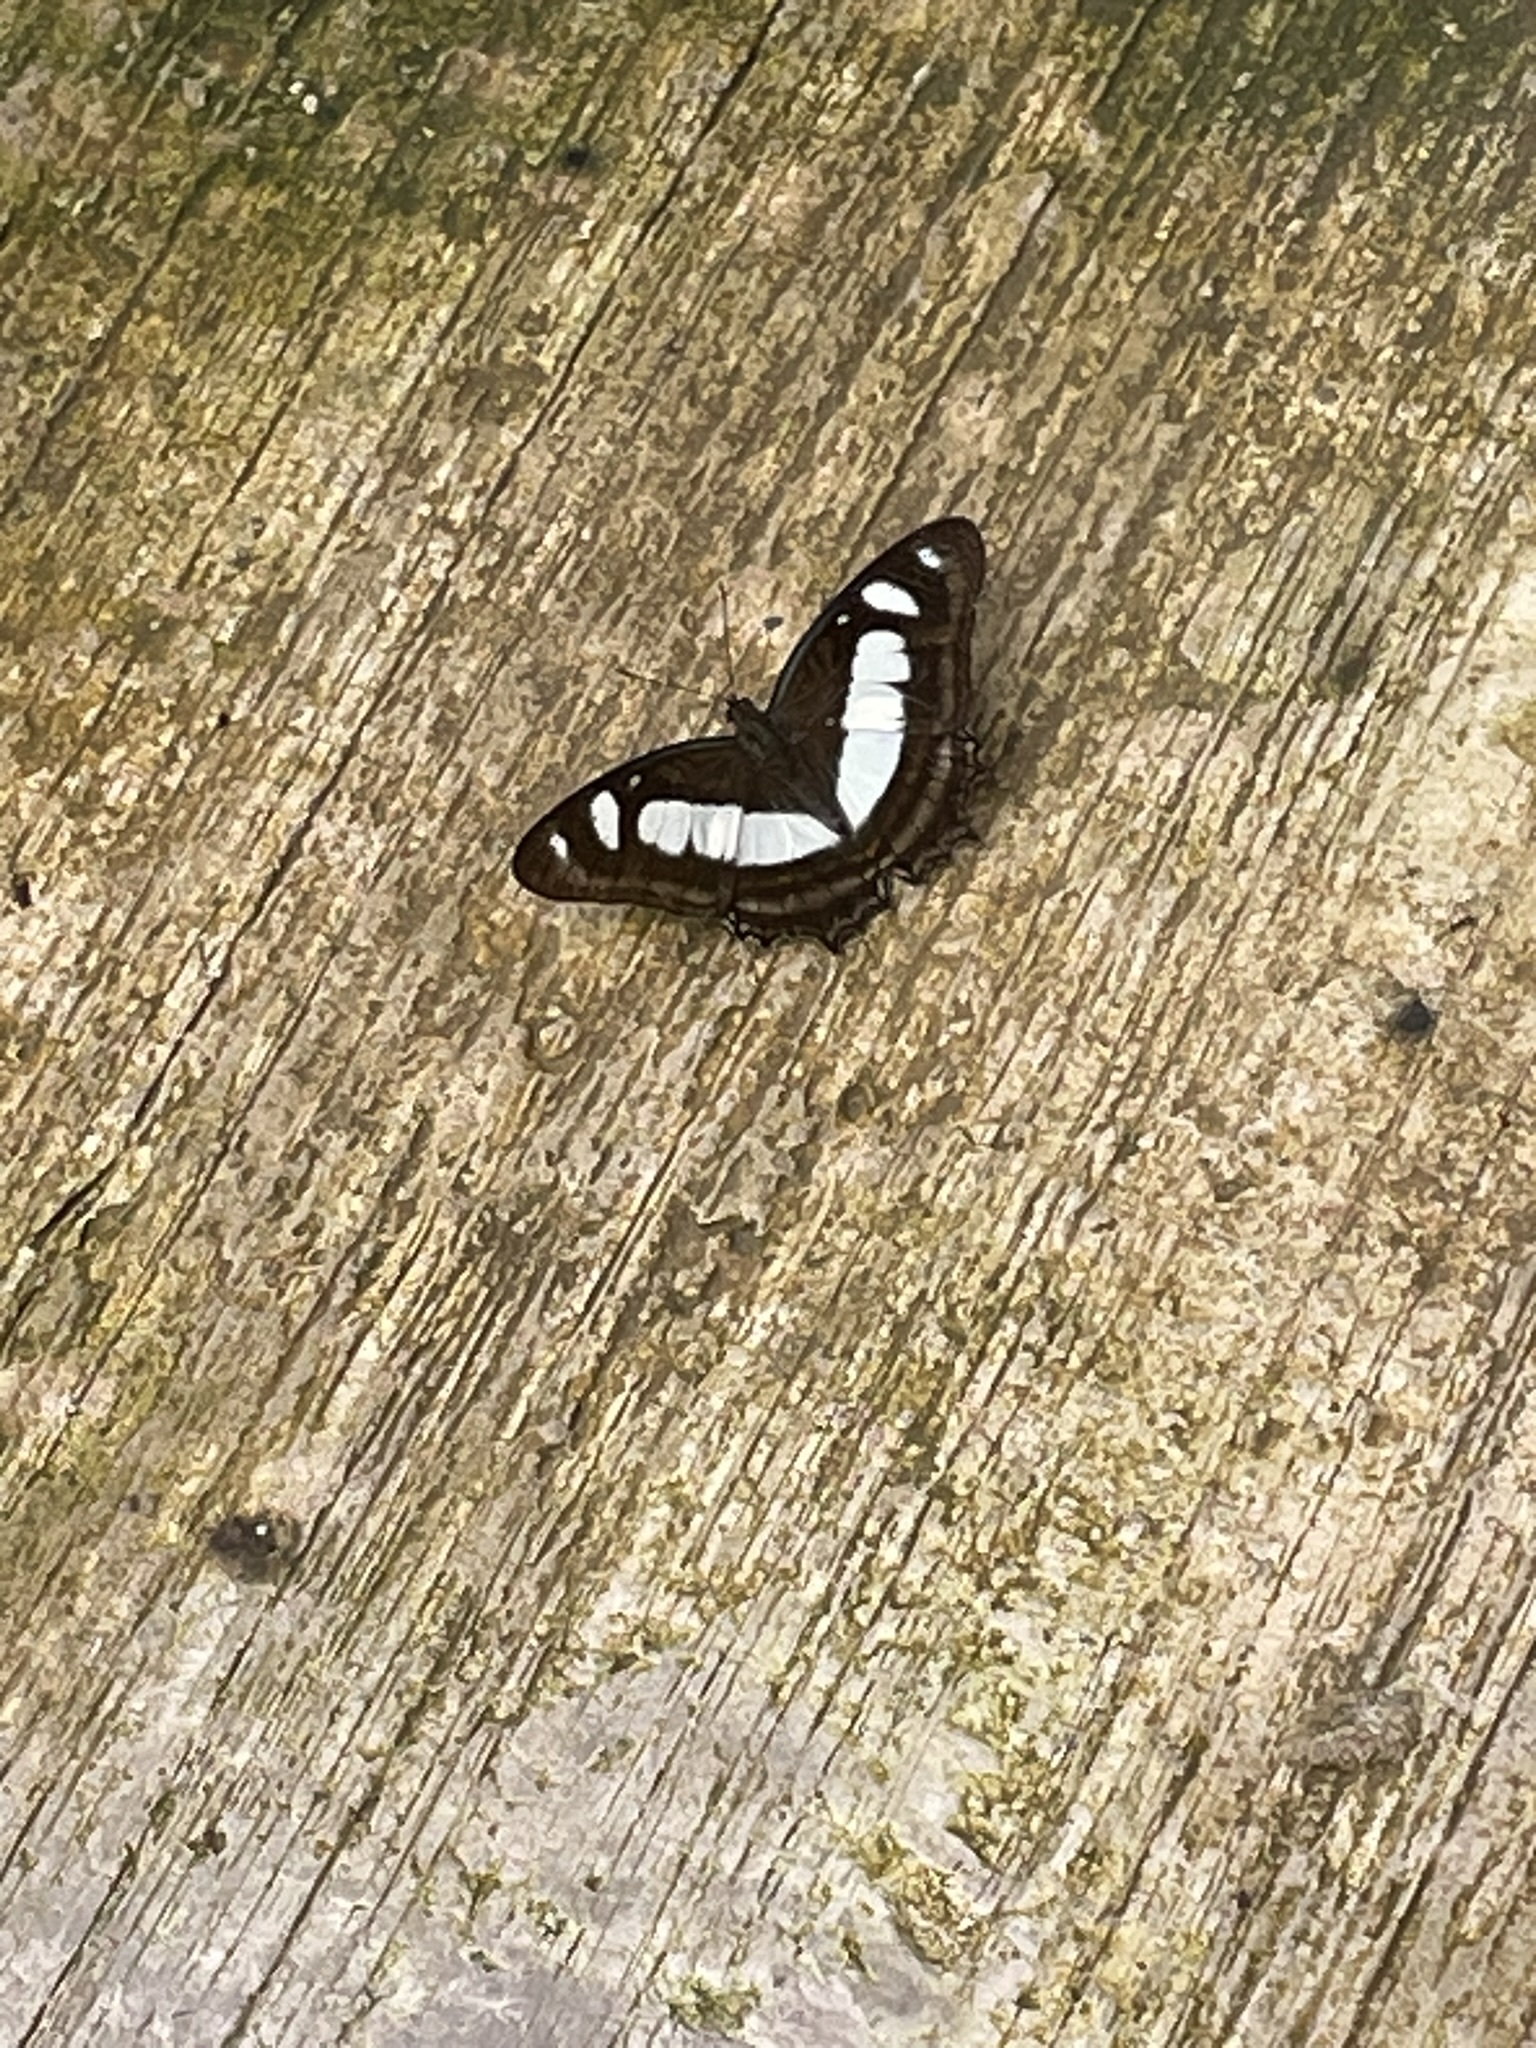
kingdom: Animalia
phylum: Arthropoda
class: Insecta
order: Lepidoptera
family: Nymphalidae
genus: Metamorpha
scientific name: Metamorpha elissa
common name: Elissa page
